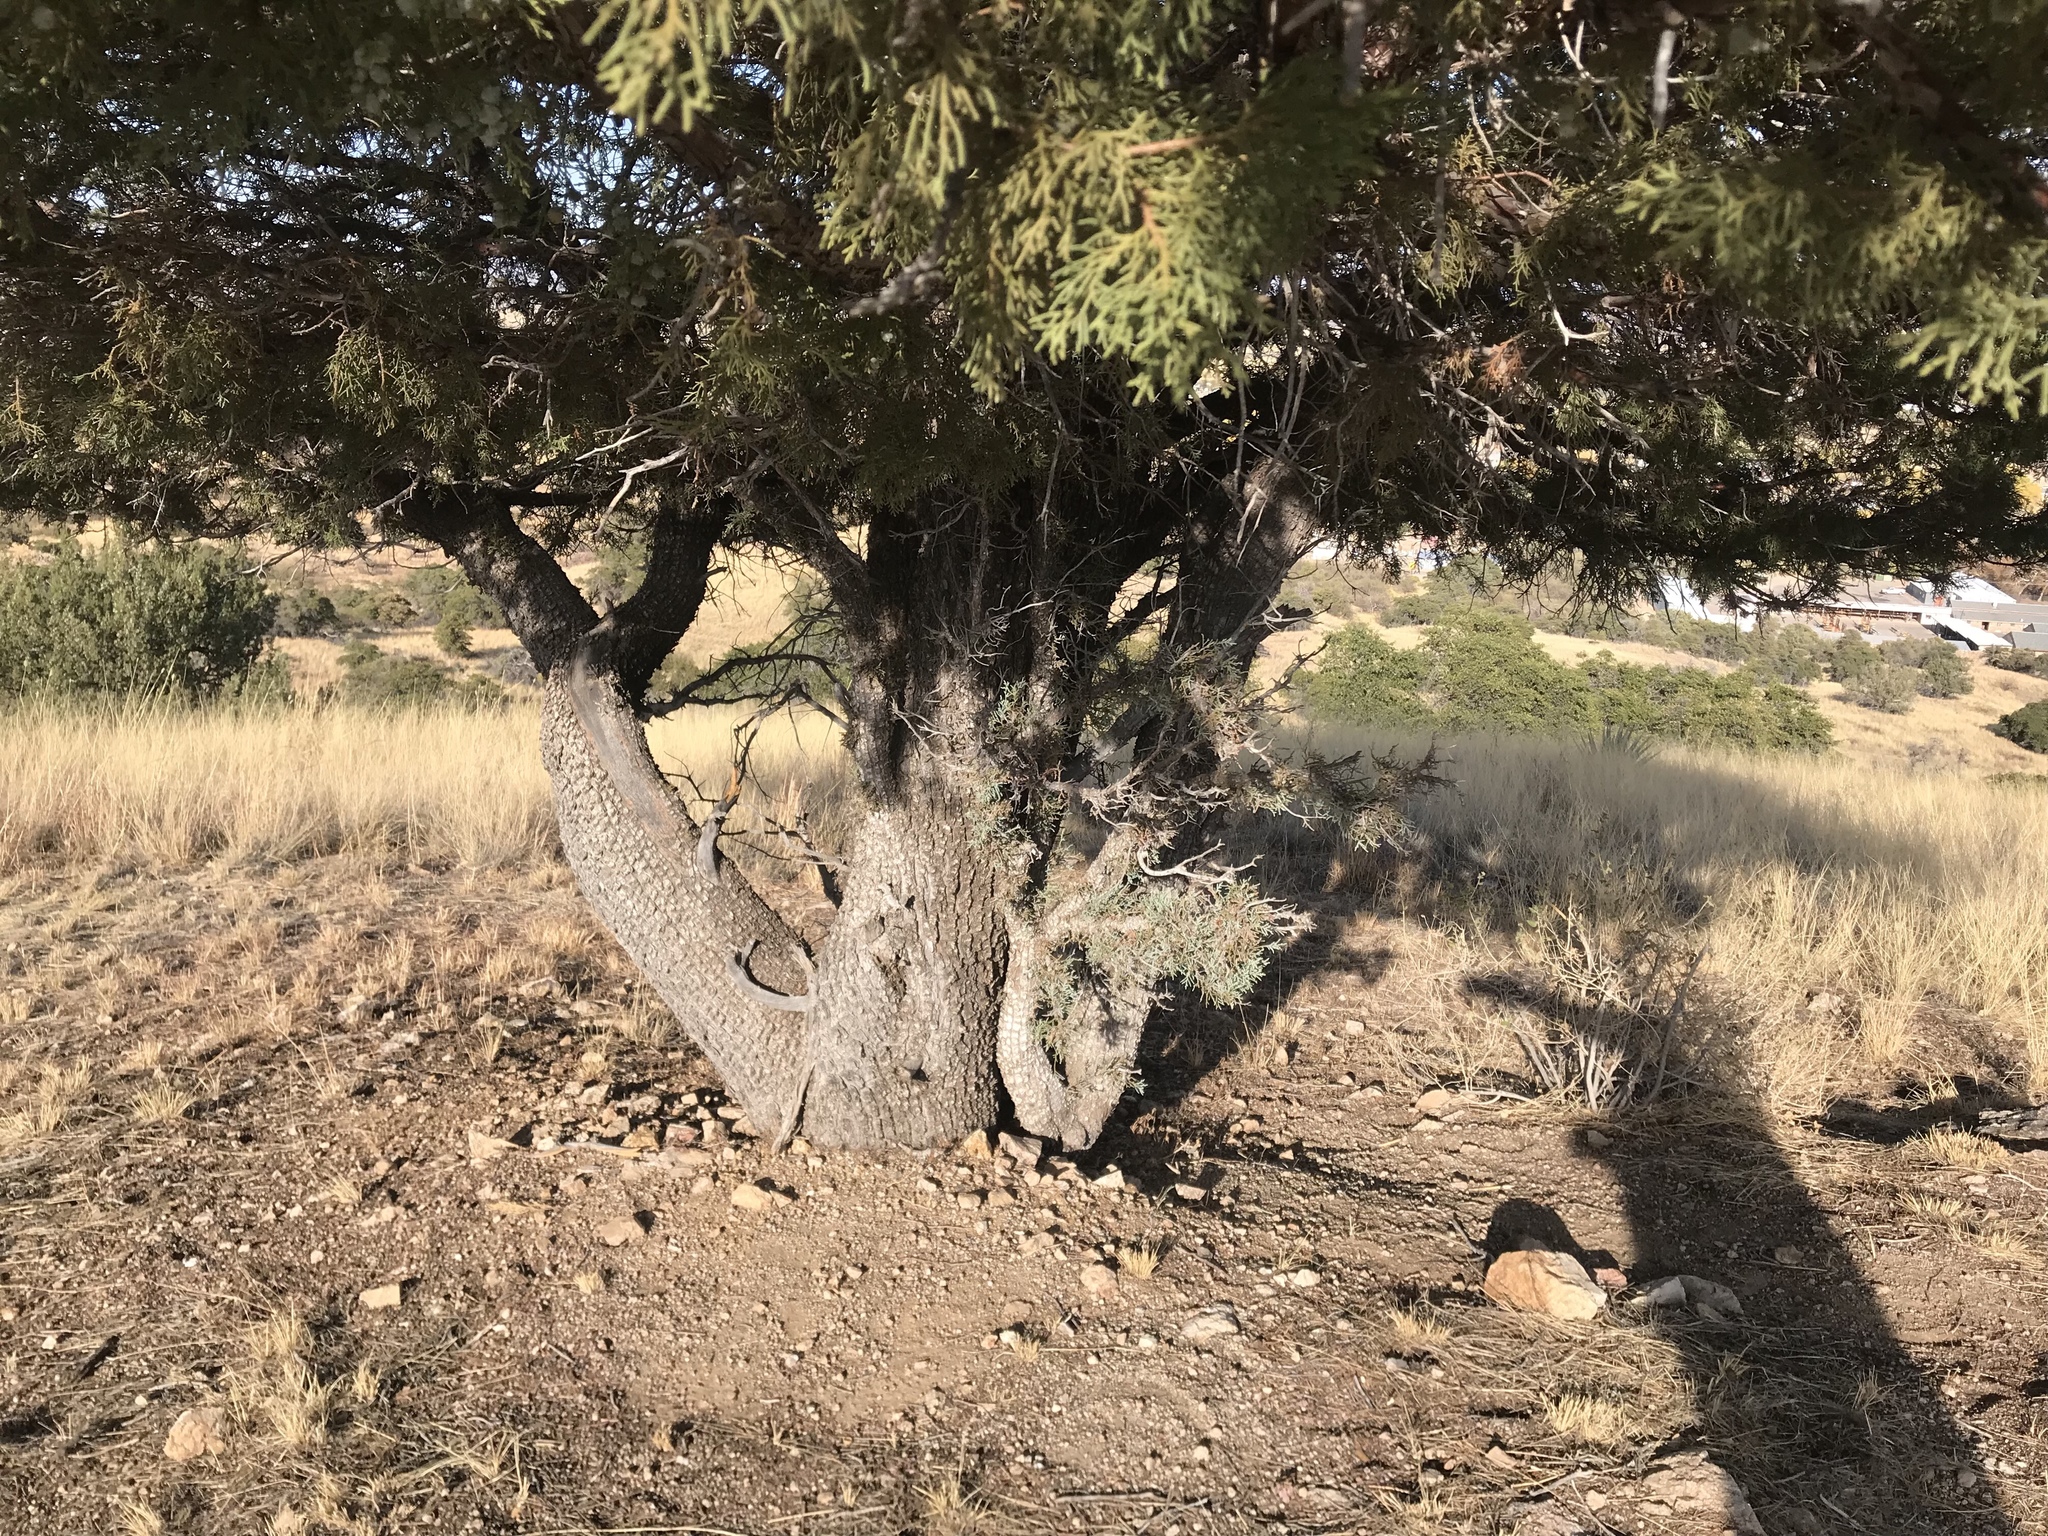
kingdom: Plantae
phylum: Tracheophyta
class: Pinopsida
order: Pinales
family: Cupressaceae
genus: Juniperus
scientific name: Juniperus deppeana
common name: Alligator juniper
